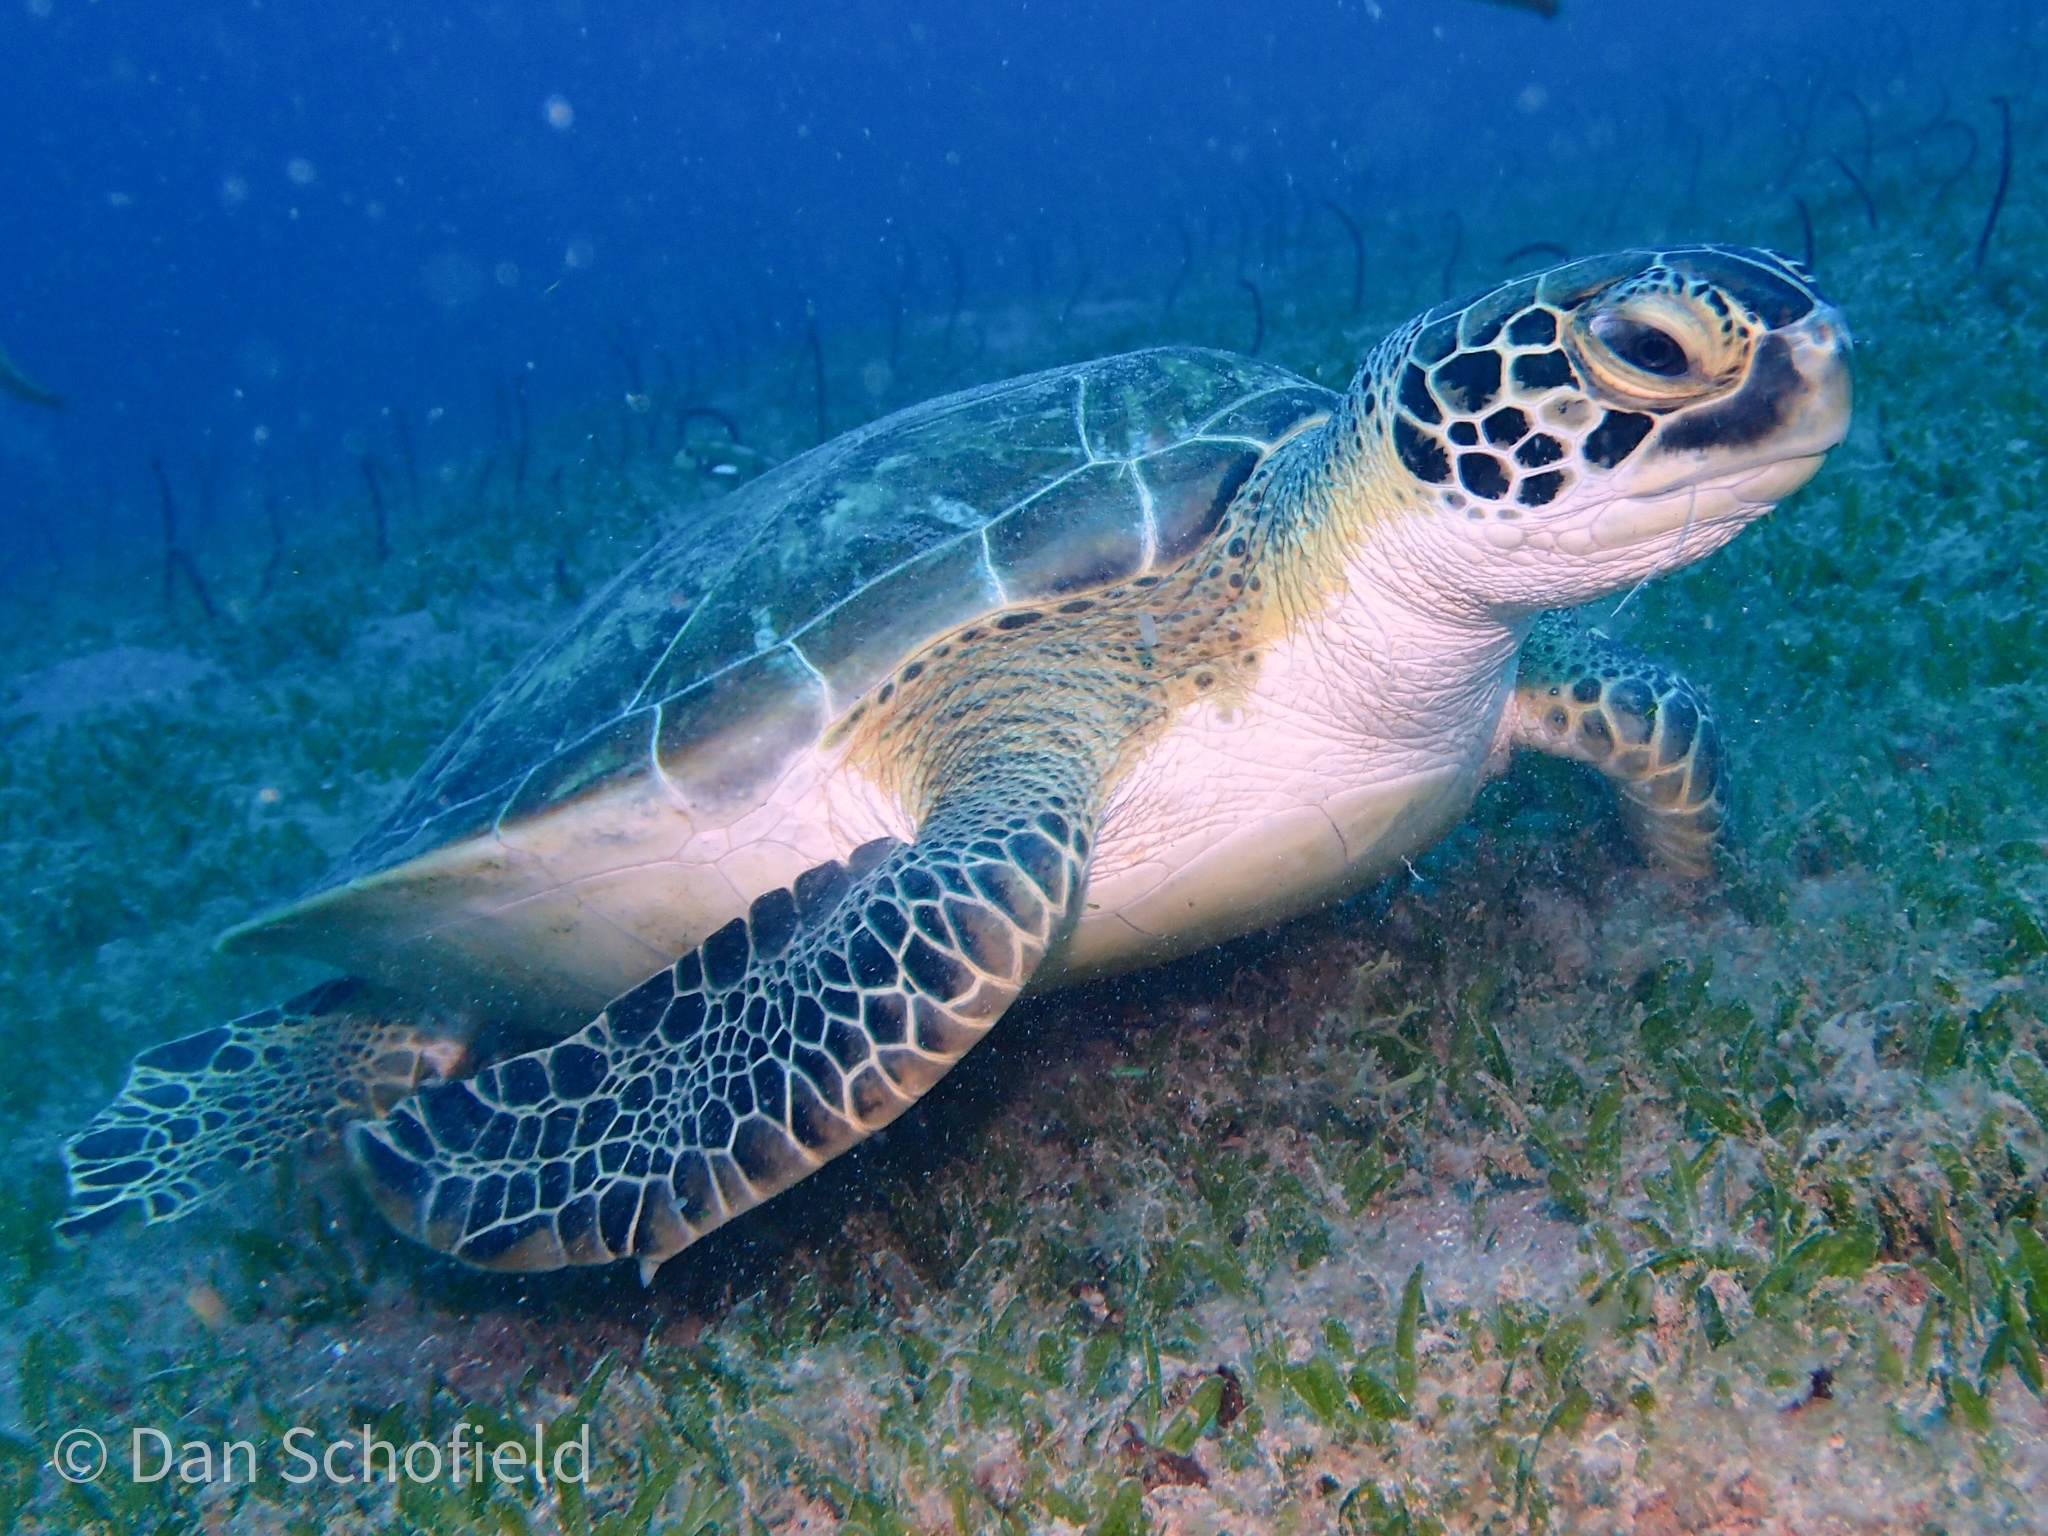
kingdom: Animalia
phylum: Chordata
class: Testudines
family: Cheloniidae
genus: Chelonia
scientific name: Chelonia mydas
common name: Green turtle
